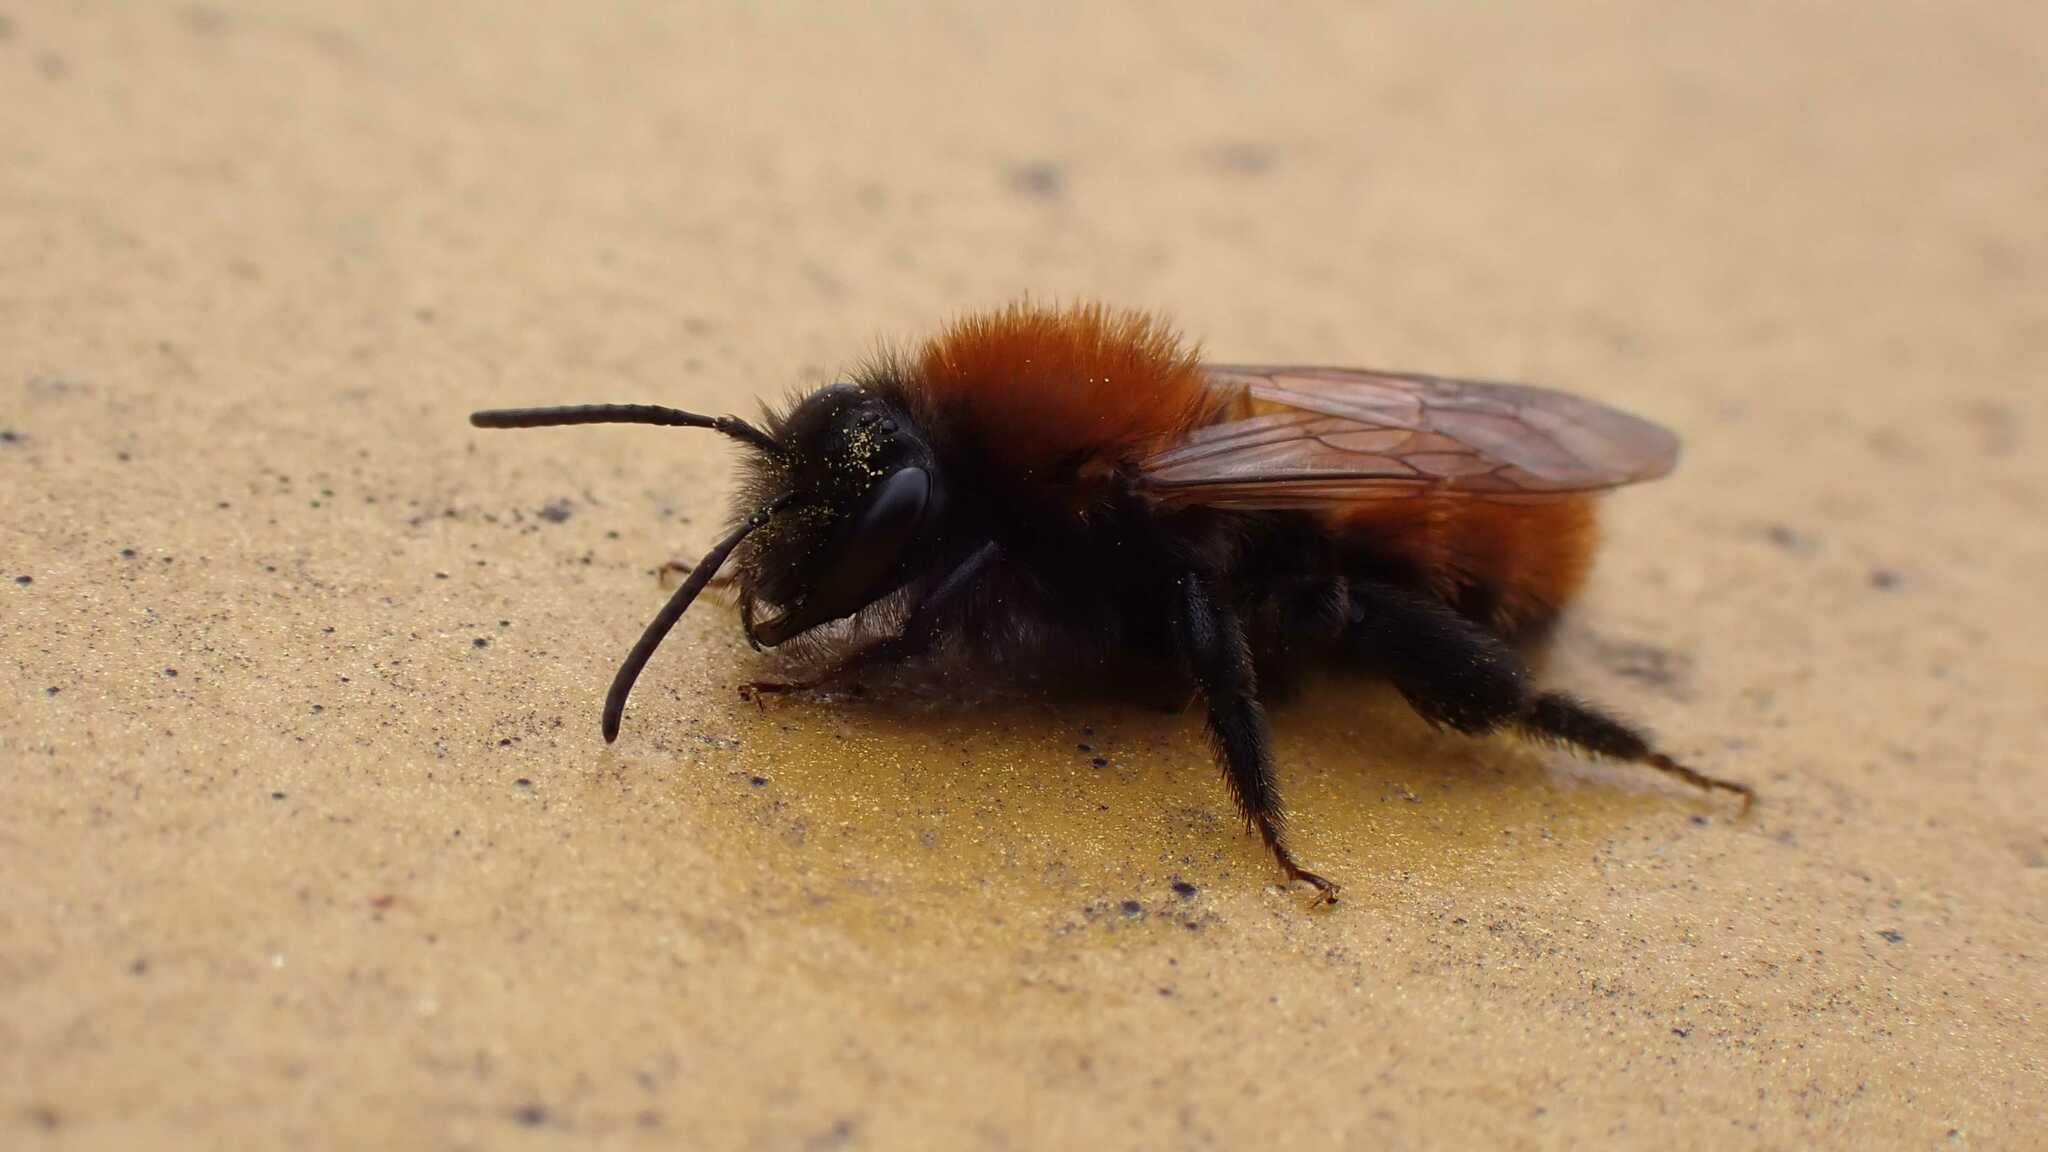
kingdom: Animalia
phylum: Arthropoda
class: Insecta
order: Hymenoptera
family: Andrenidae
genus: Andrena
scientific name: Andrena fulva
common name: Tawny mining bee
